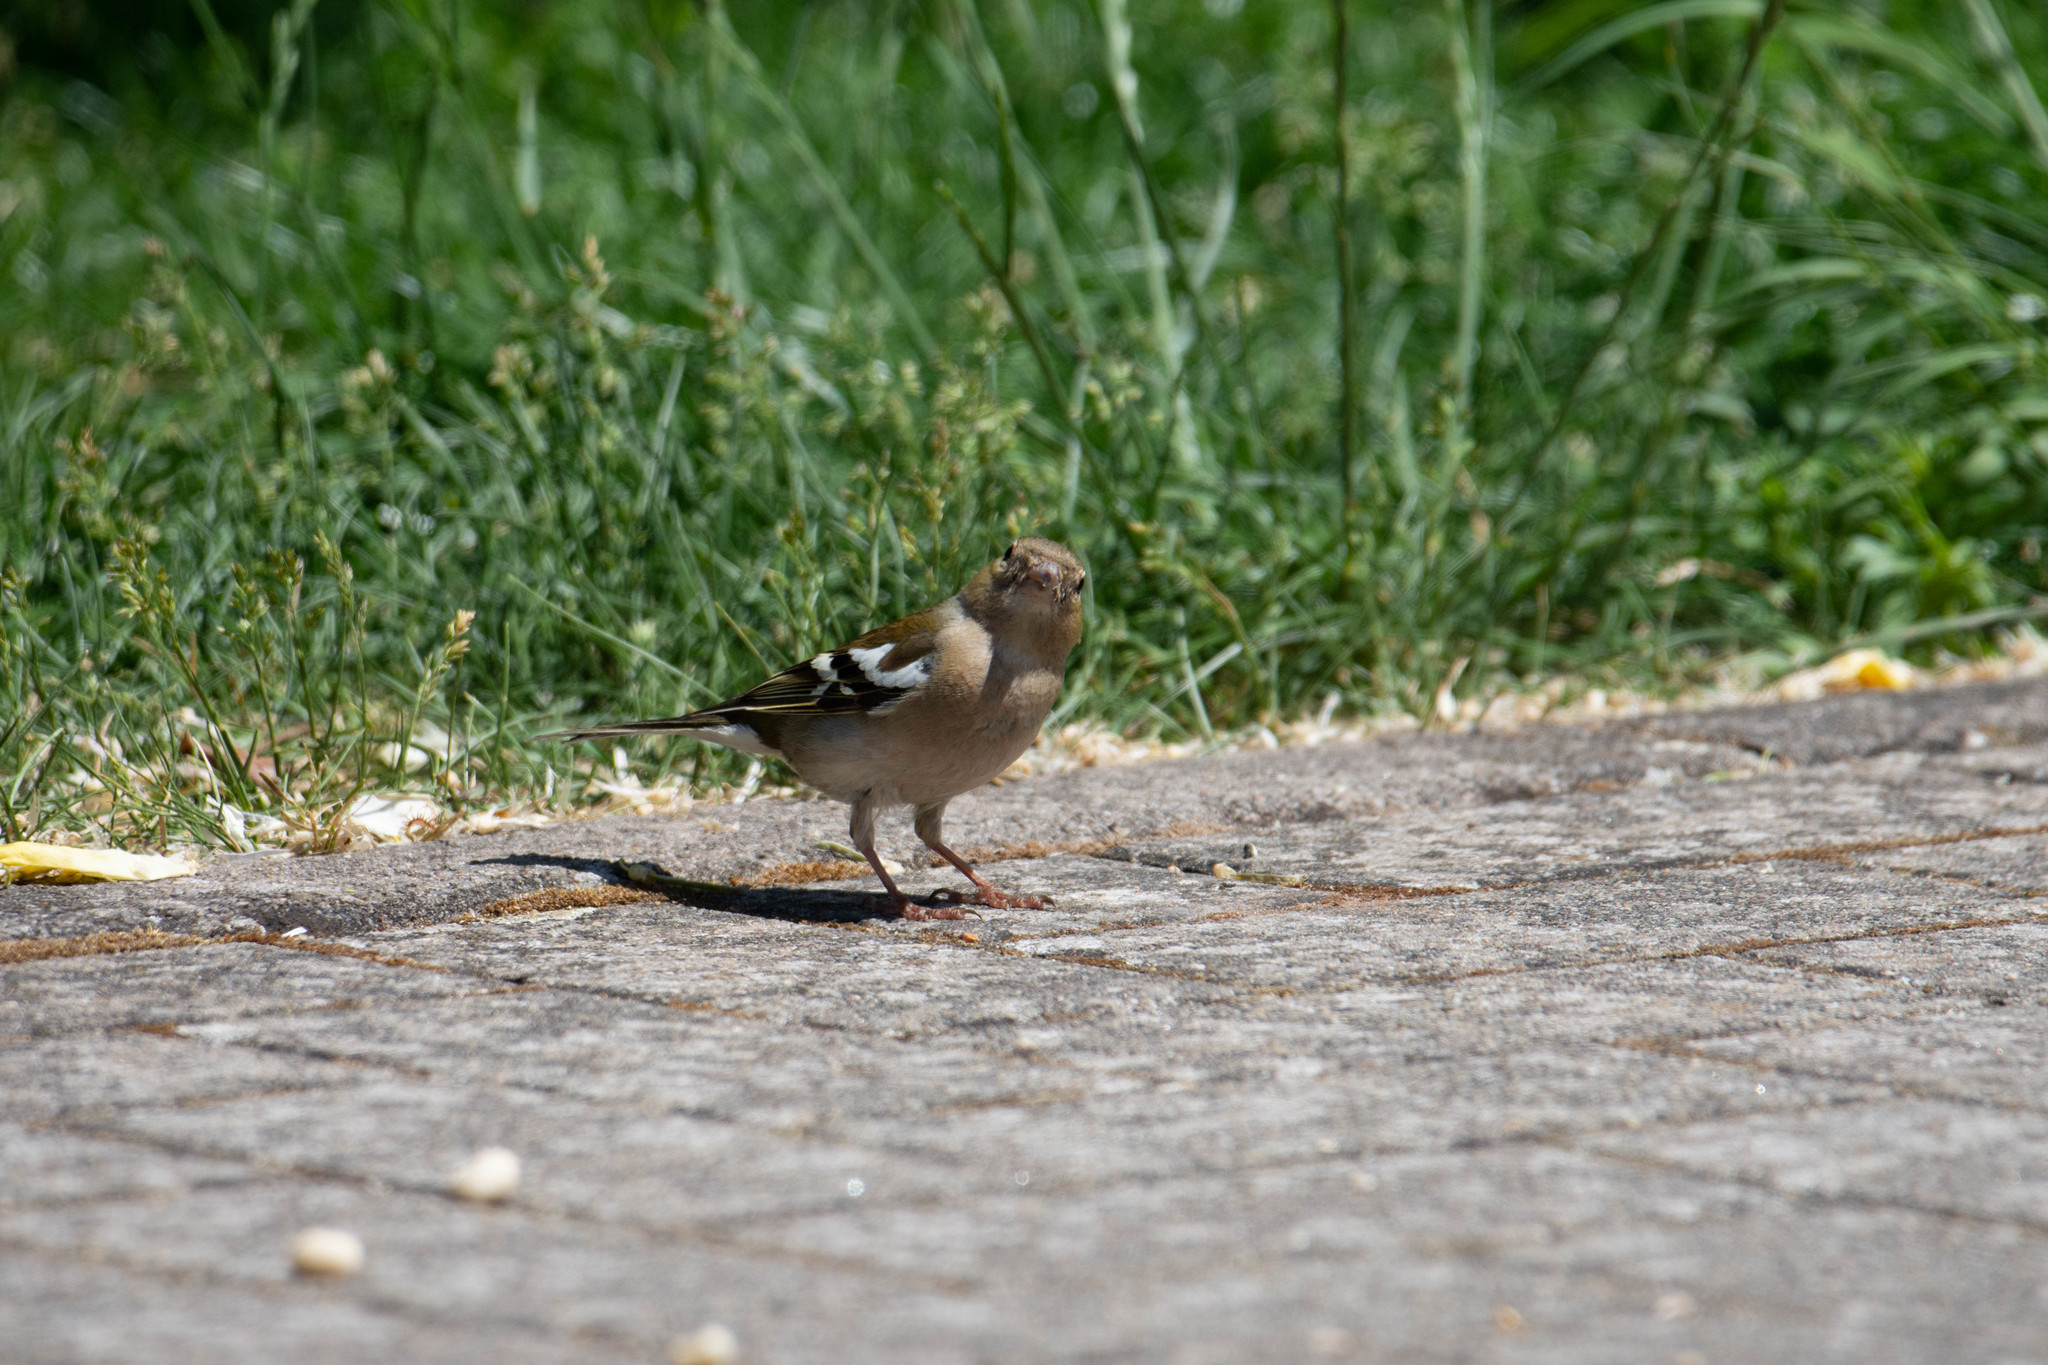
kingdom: Animalia
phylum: Chordata
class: Aves
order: Passeriformes
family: Fringillidae
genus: Fringilla
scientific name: Fringilla coelebs
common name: Common chaffinch
